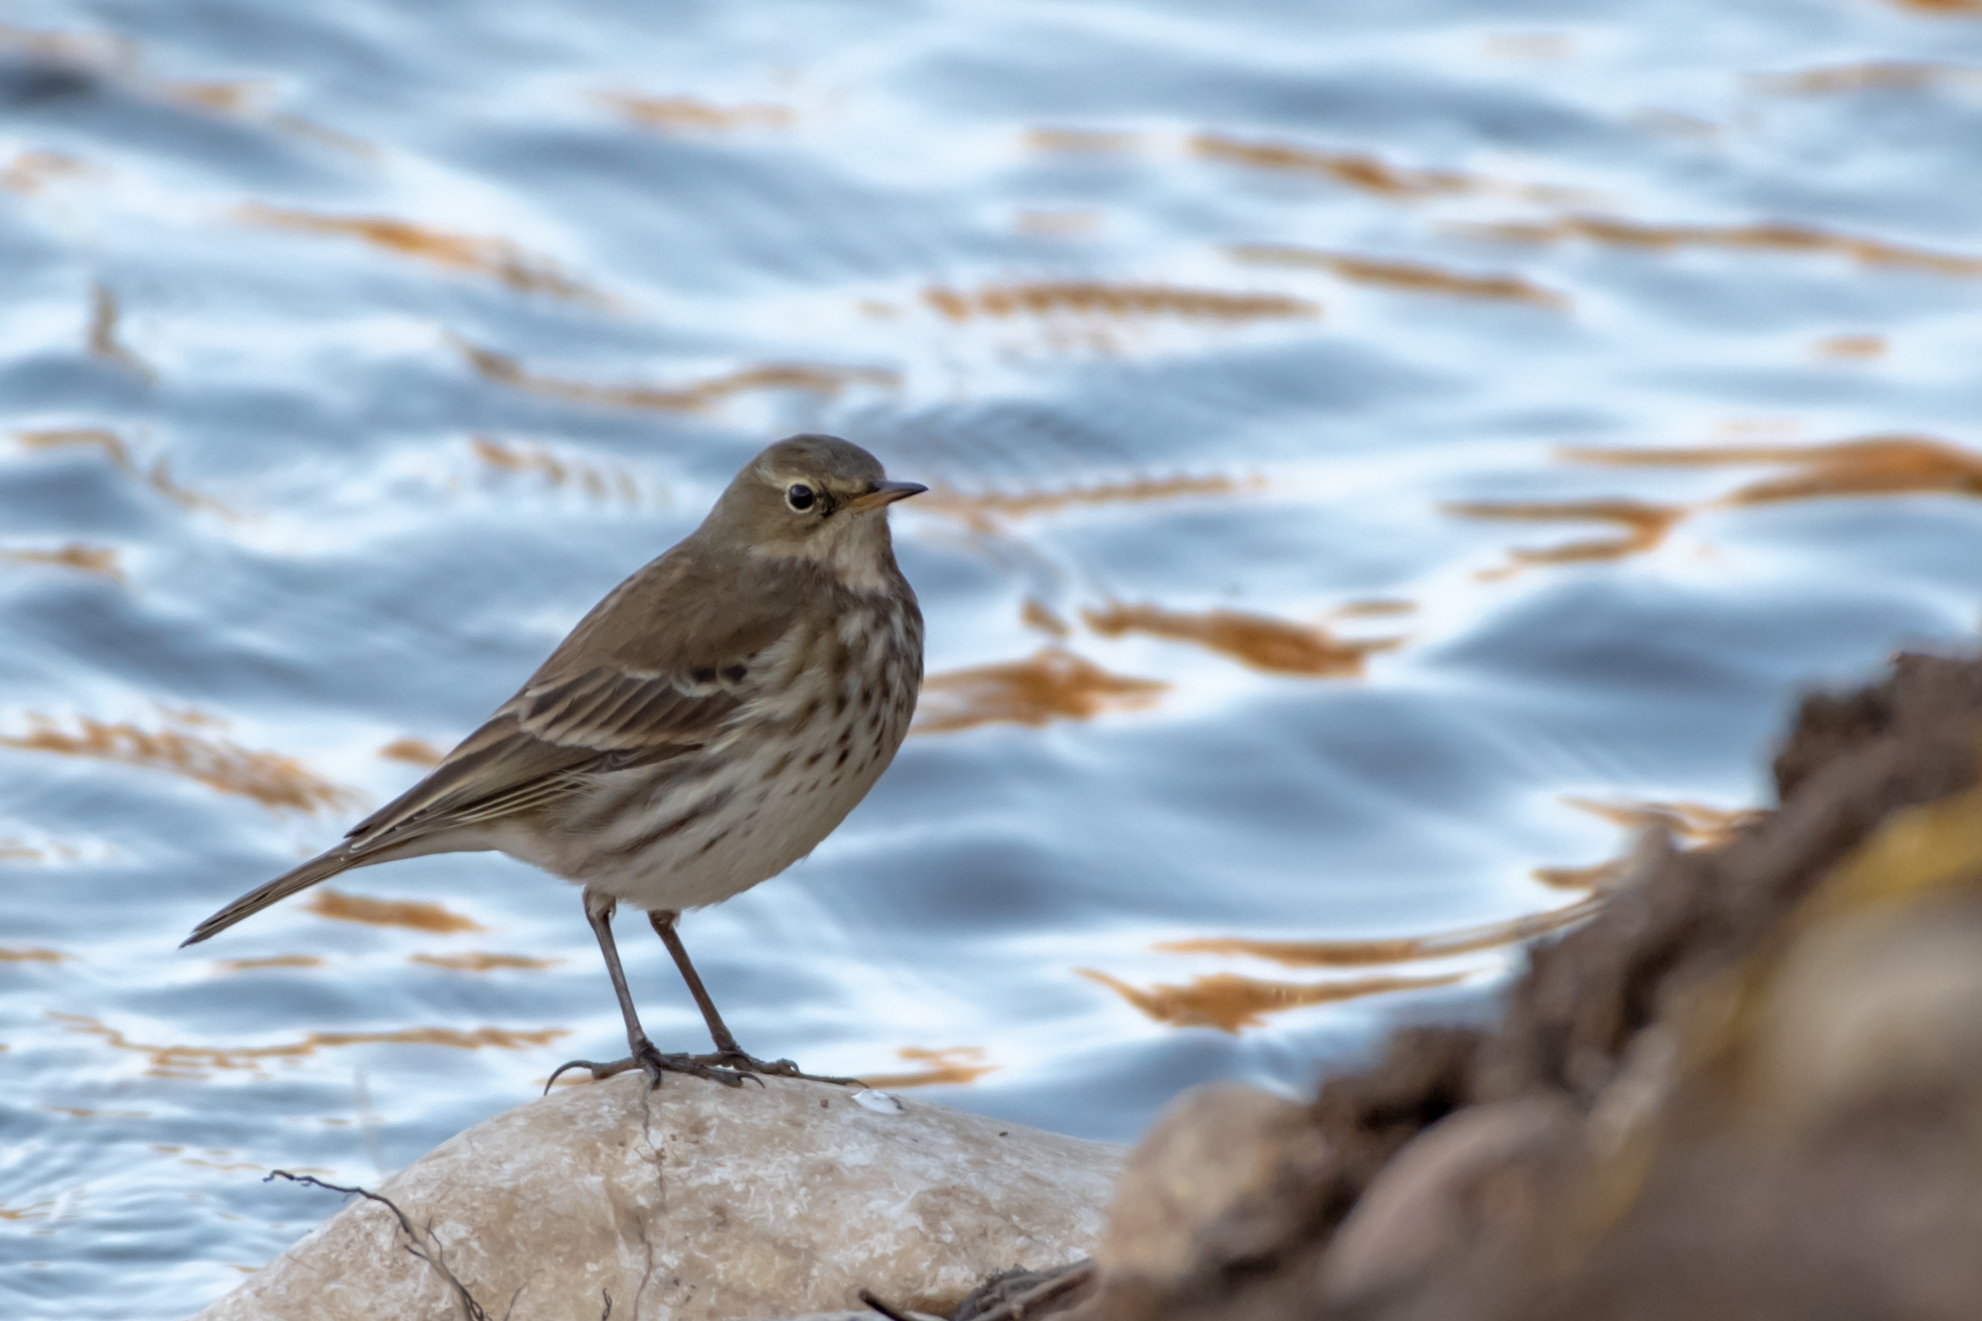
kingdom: Animalia
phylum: Chordata
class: Aves
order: Passeriformes
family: Motacillidae
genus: Anthus
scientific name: Anthus spinoletta
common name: Water pipit
